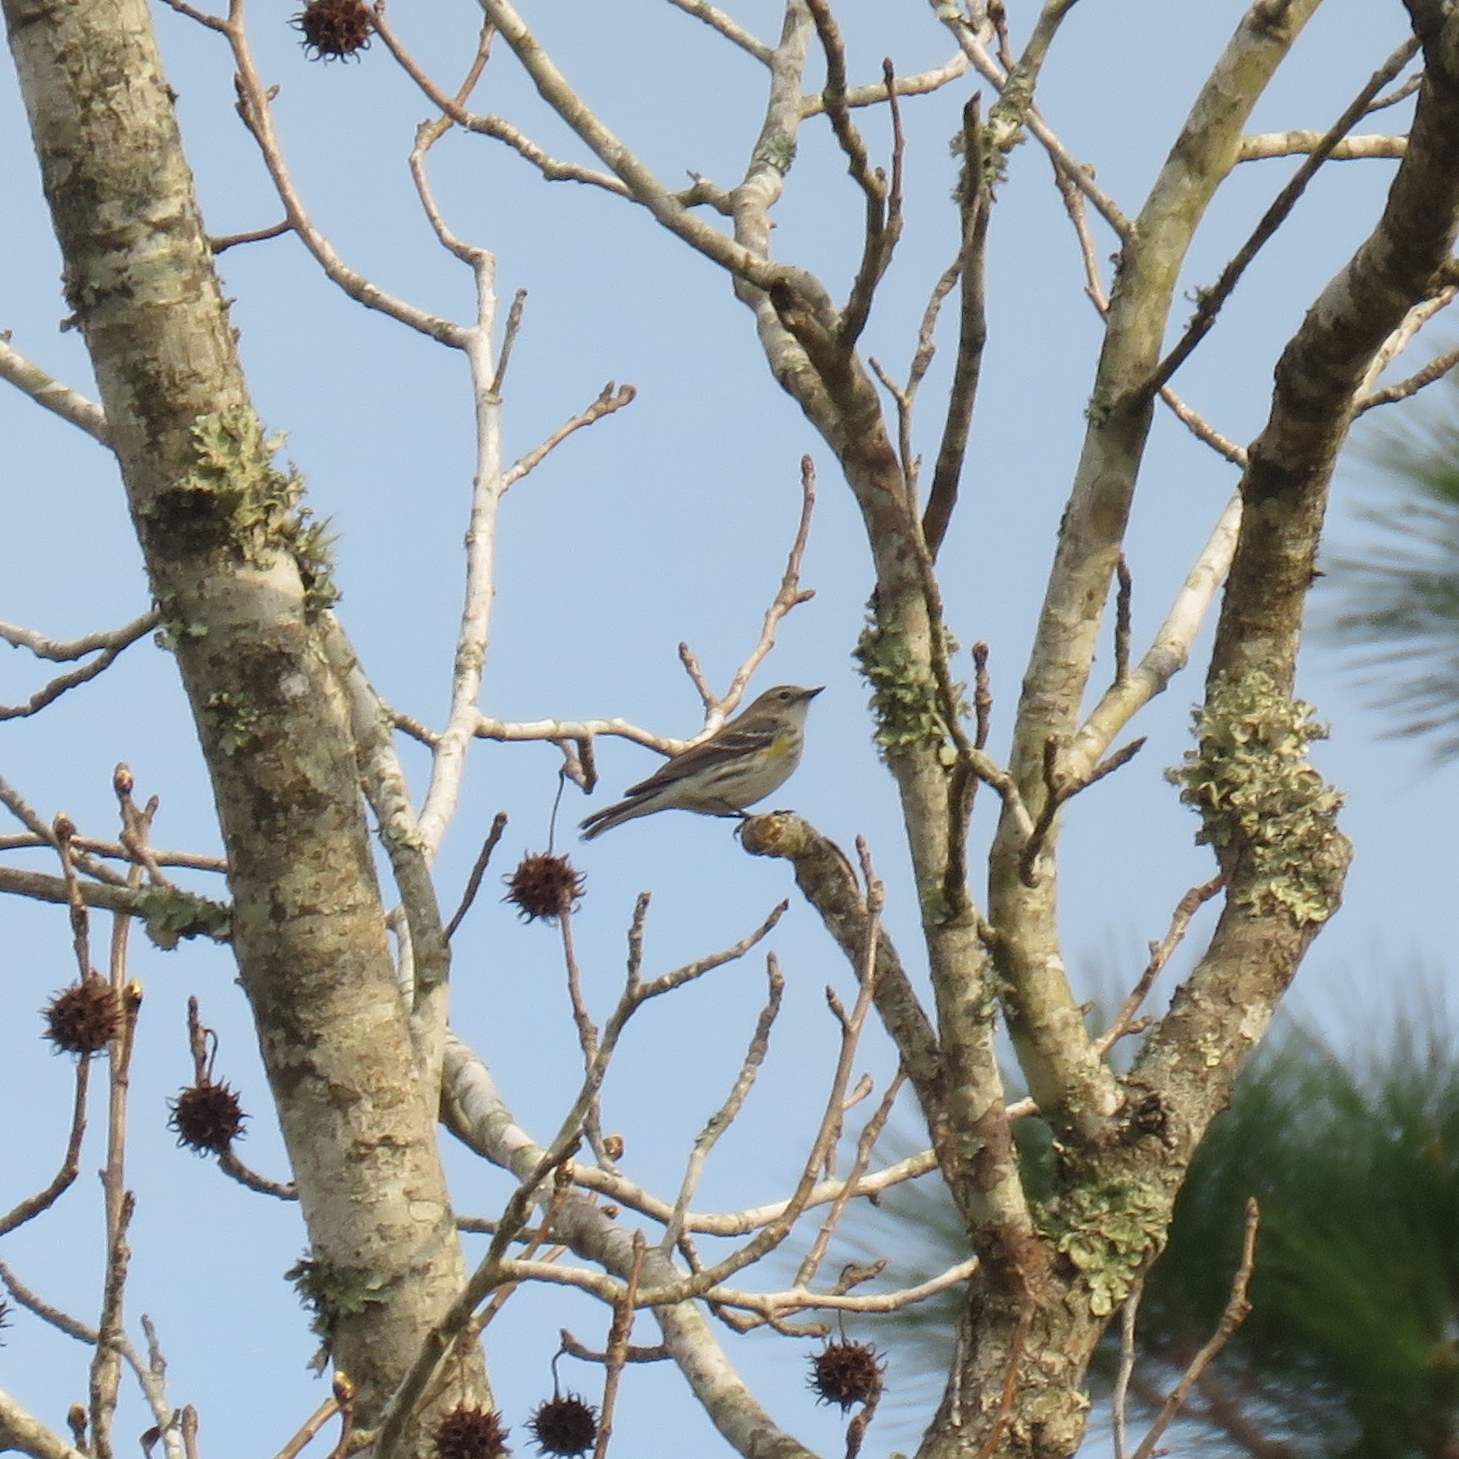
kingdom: Animalia
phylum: Chordata
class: Aves
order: Passeriformes
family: Parulidae
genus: Setophaga
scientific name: Setophaga coronata
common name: Myrtle warbler
